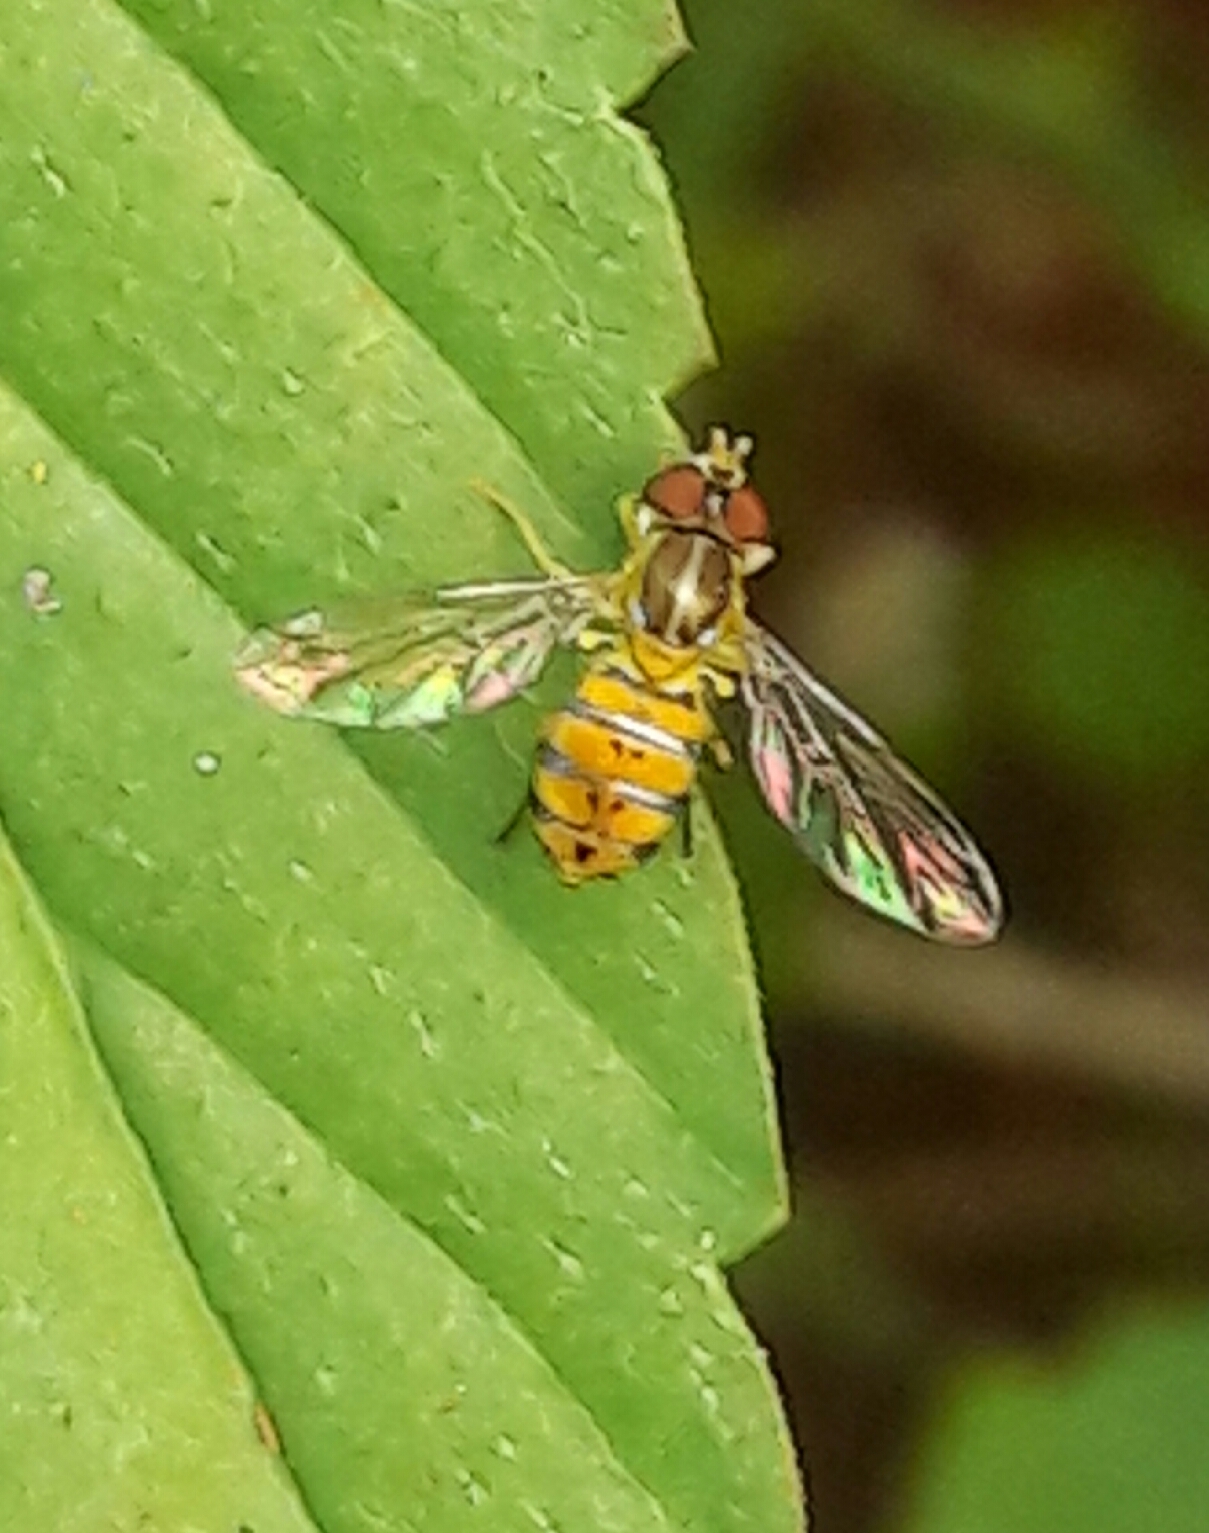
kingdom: Animalia
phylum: Arthropoda
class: Insecta
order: Diptera
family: Syrphidae
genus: Toxomerus
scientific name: Toxomerus
